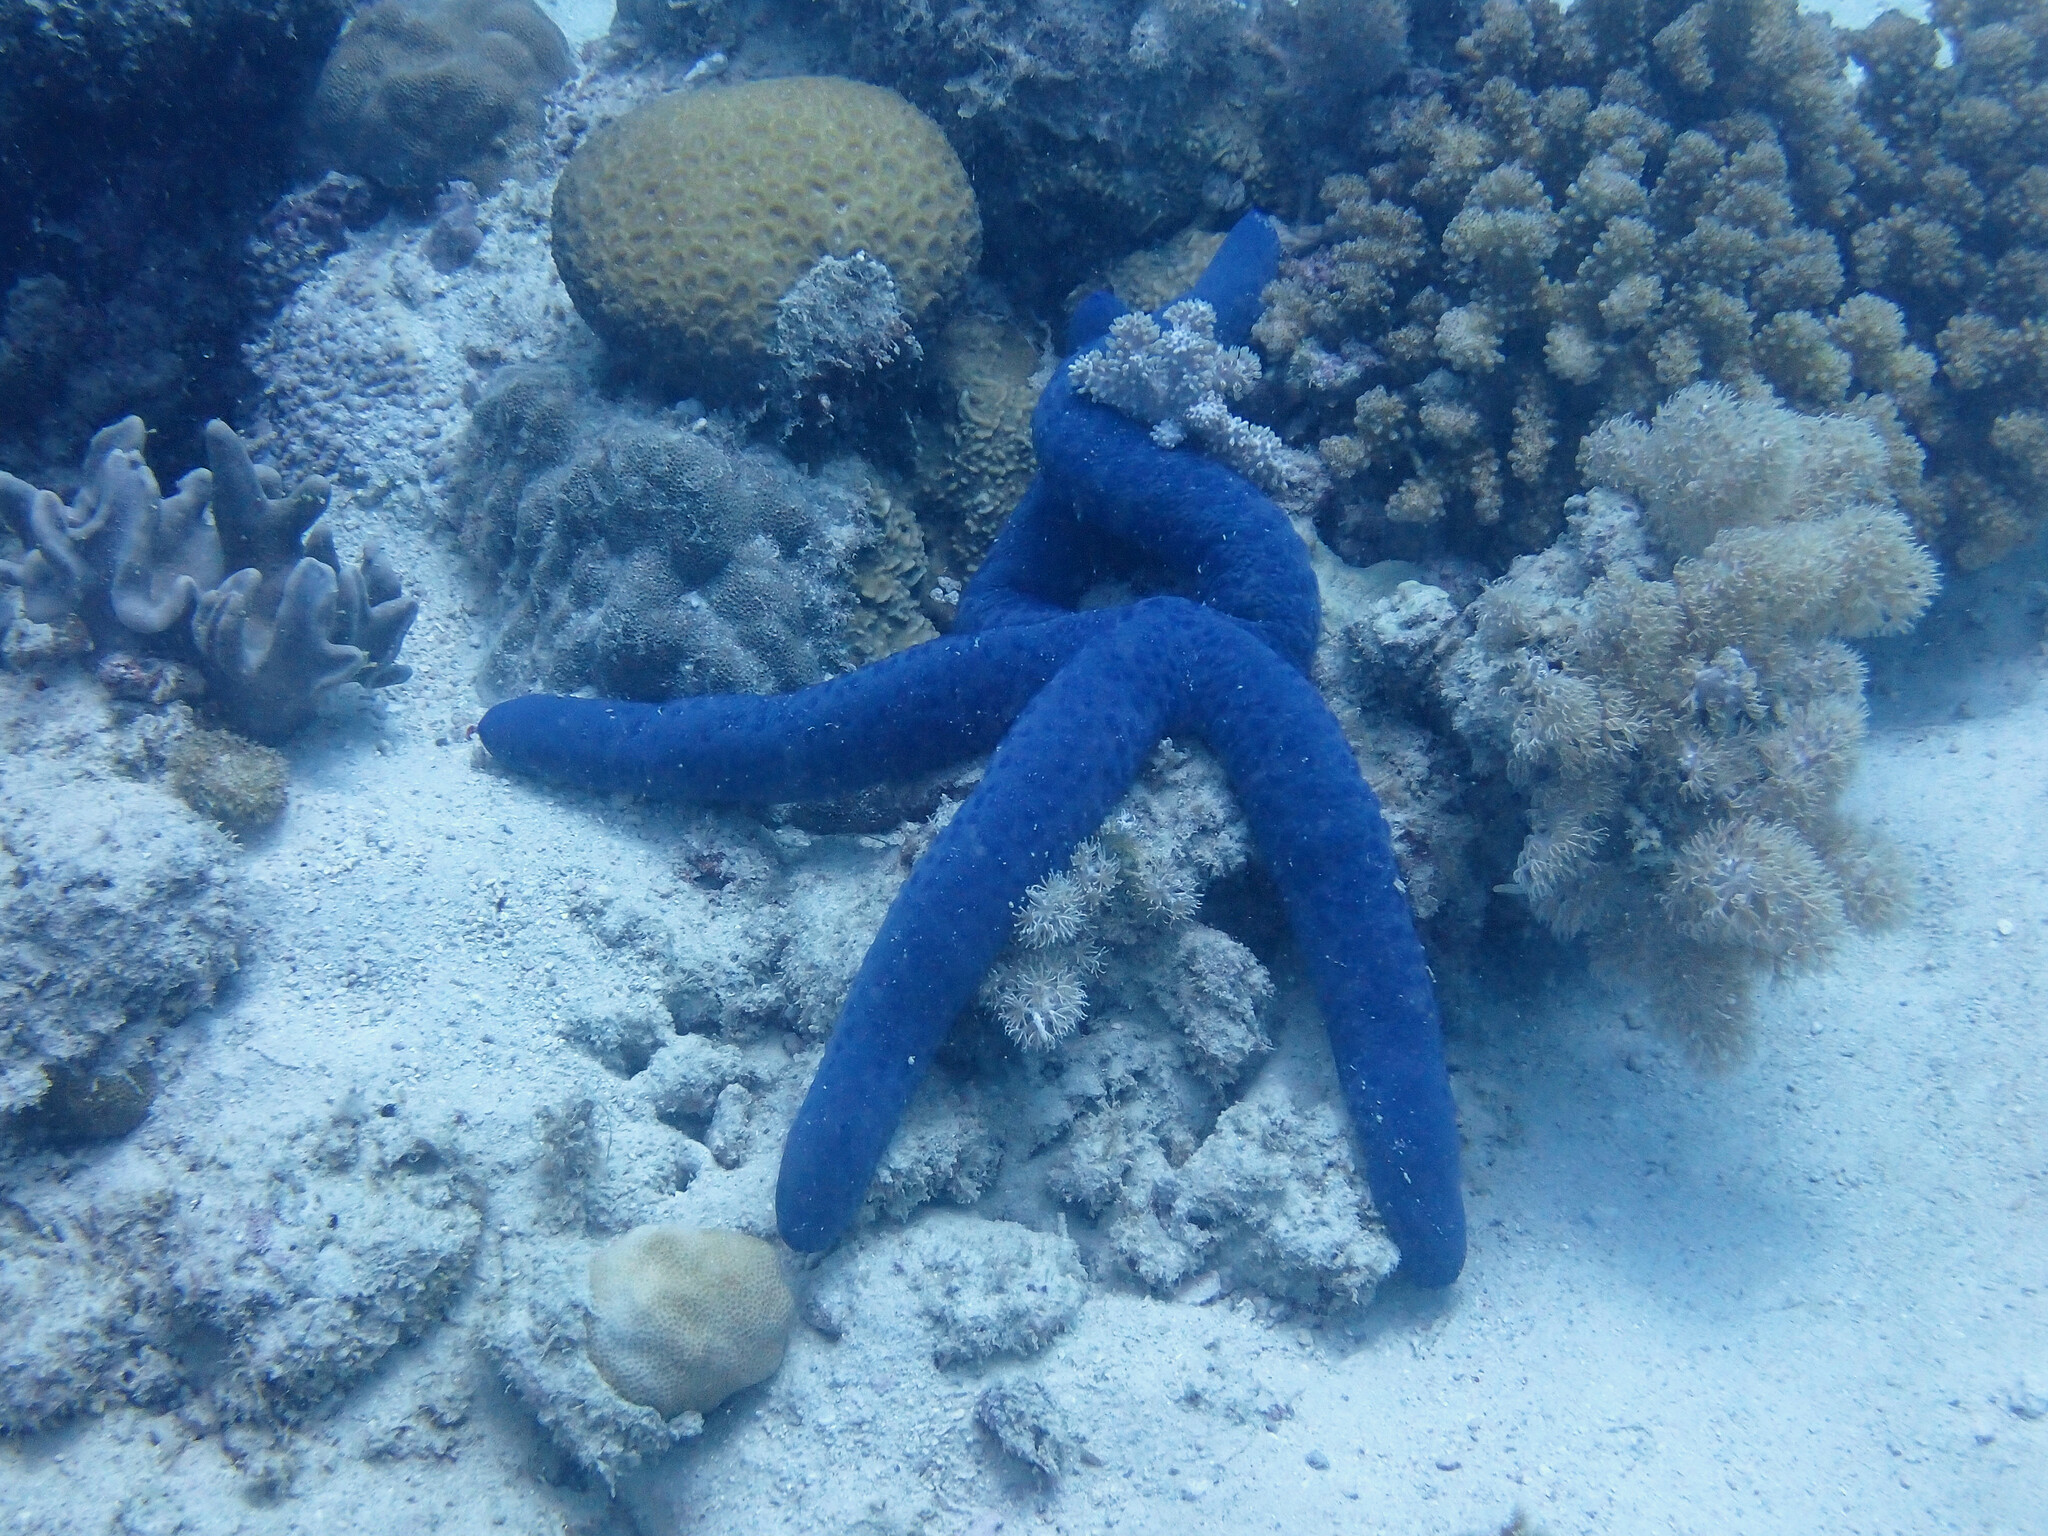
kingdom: Animalia
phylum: Echinodermata
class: Asteroidea
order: Valvatida
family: Ophidiasteridae
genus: Linckia
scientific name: Linckia laevigata
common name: Azure sea star
